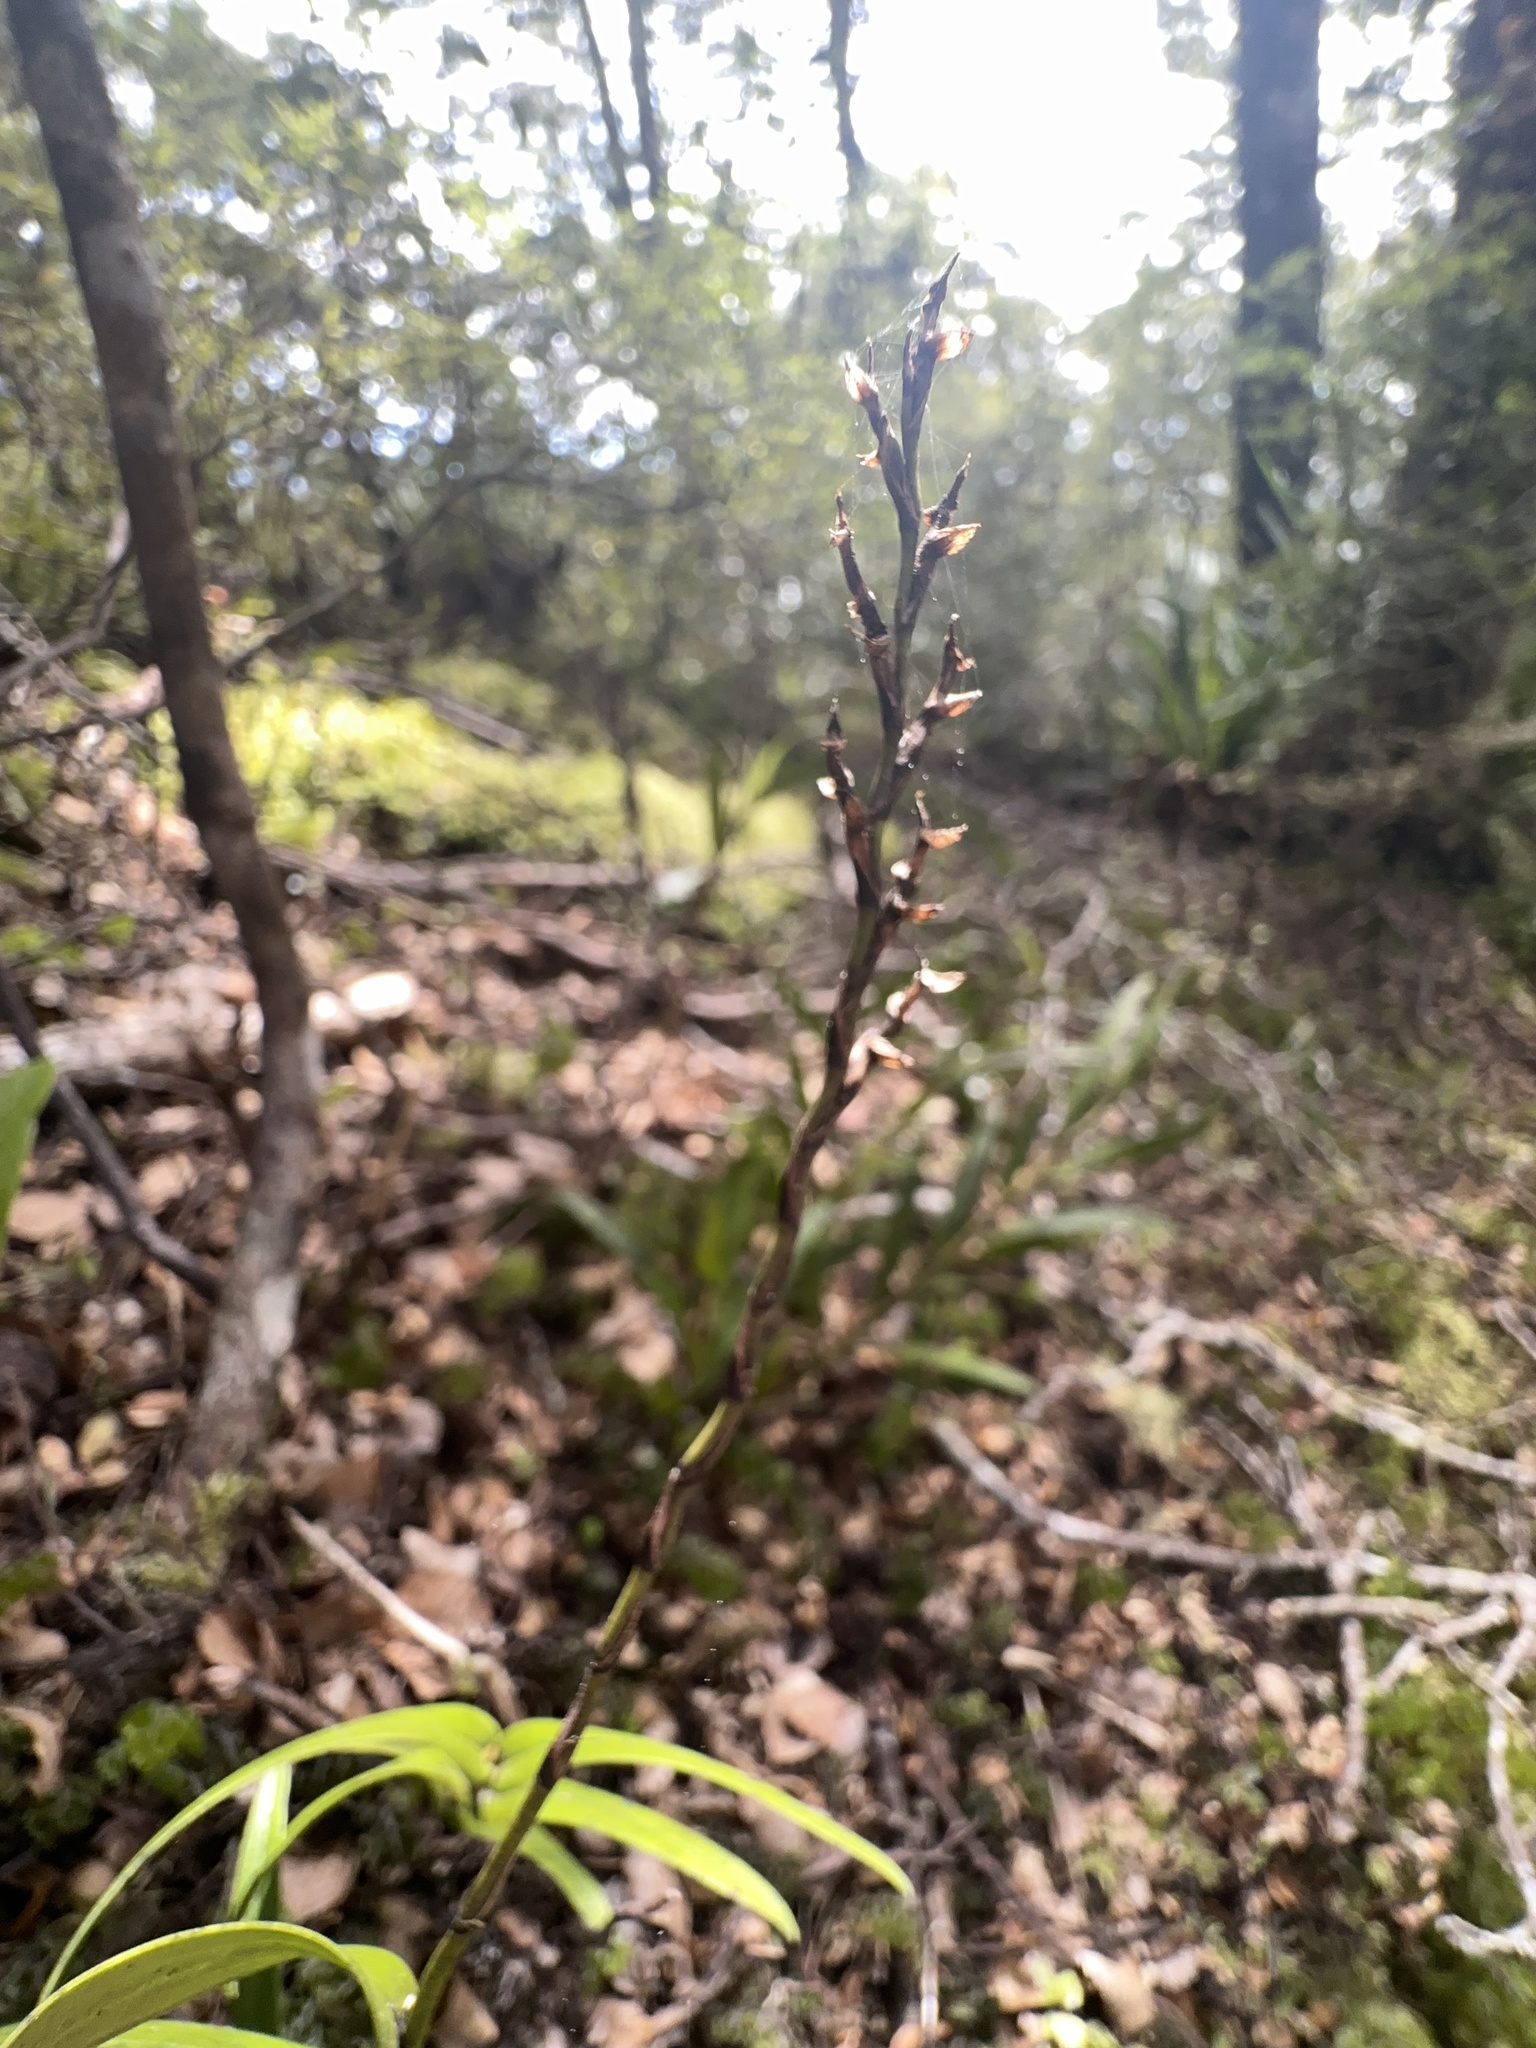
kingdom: Plantae
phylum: Tracheophyta
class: Liliopsida
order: Asparagales
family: Orchidaceae
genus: Earina
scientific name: Earina autumnalis
